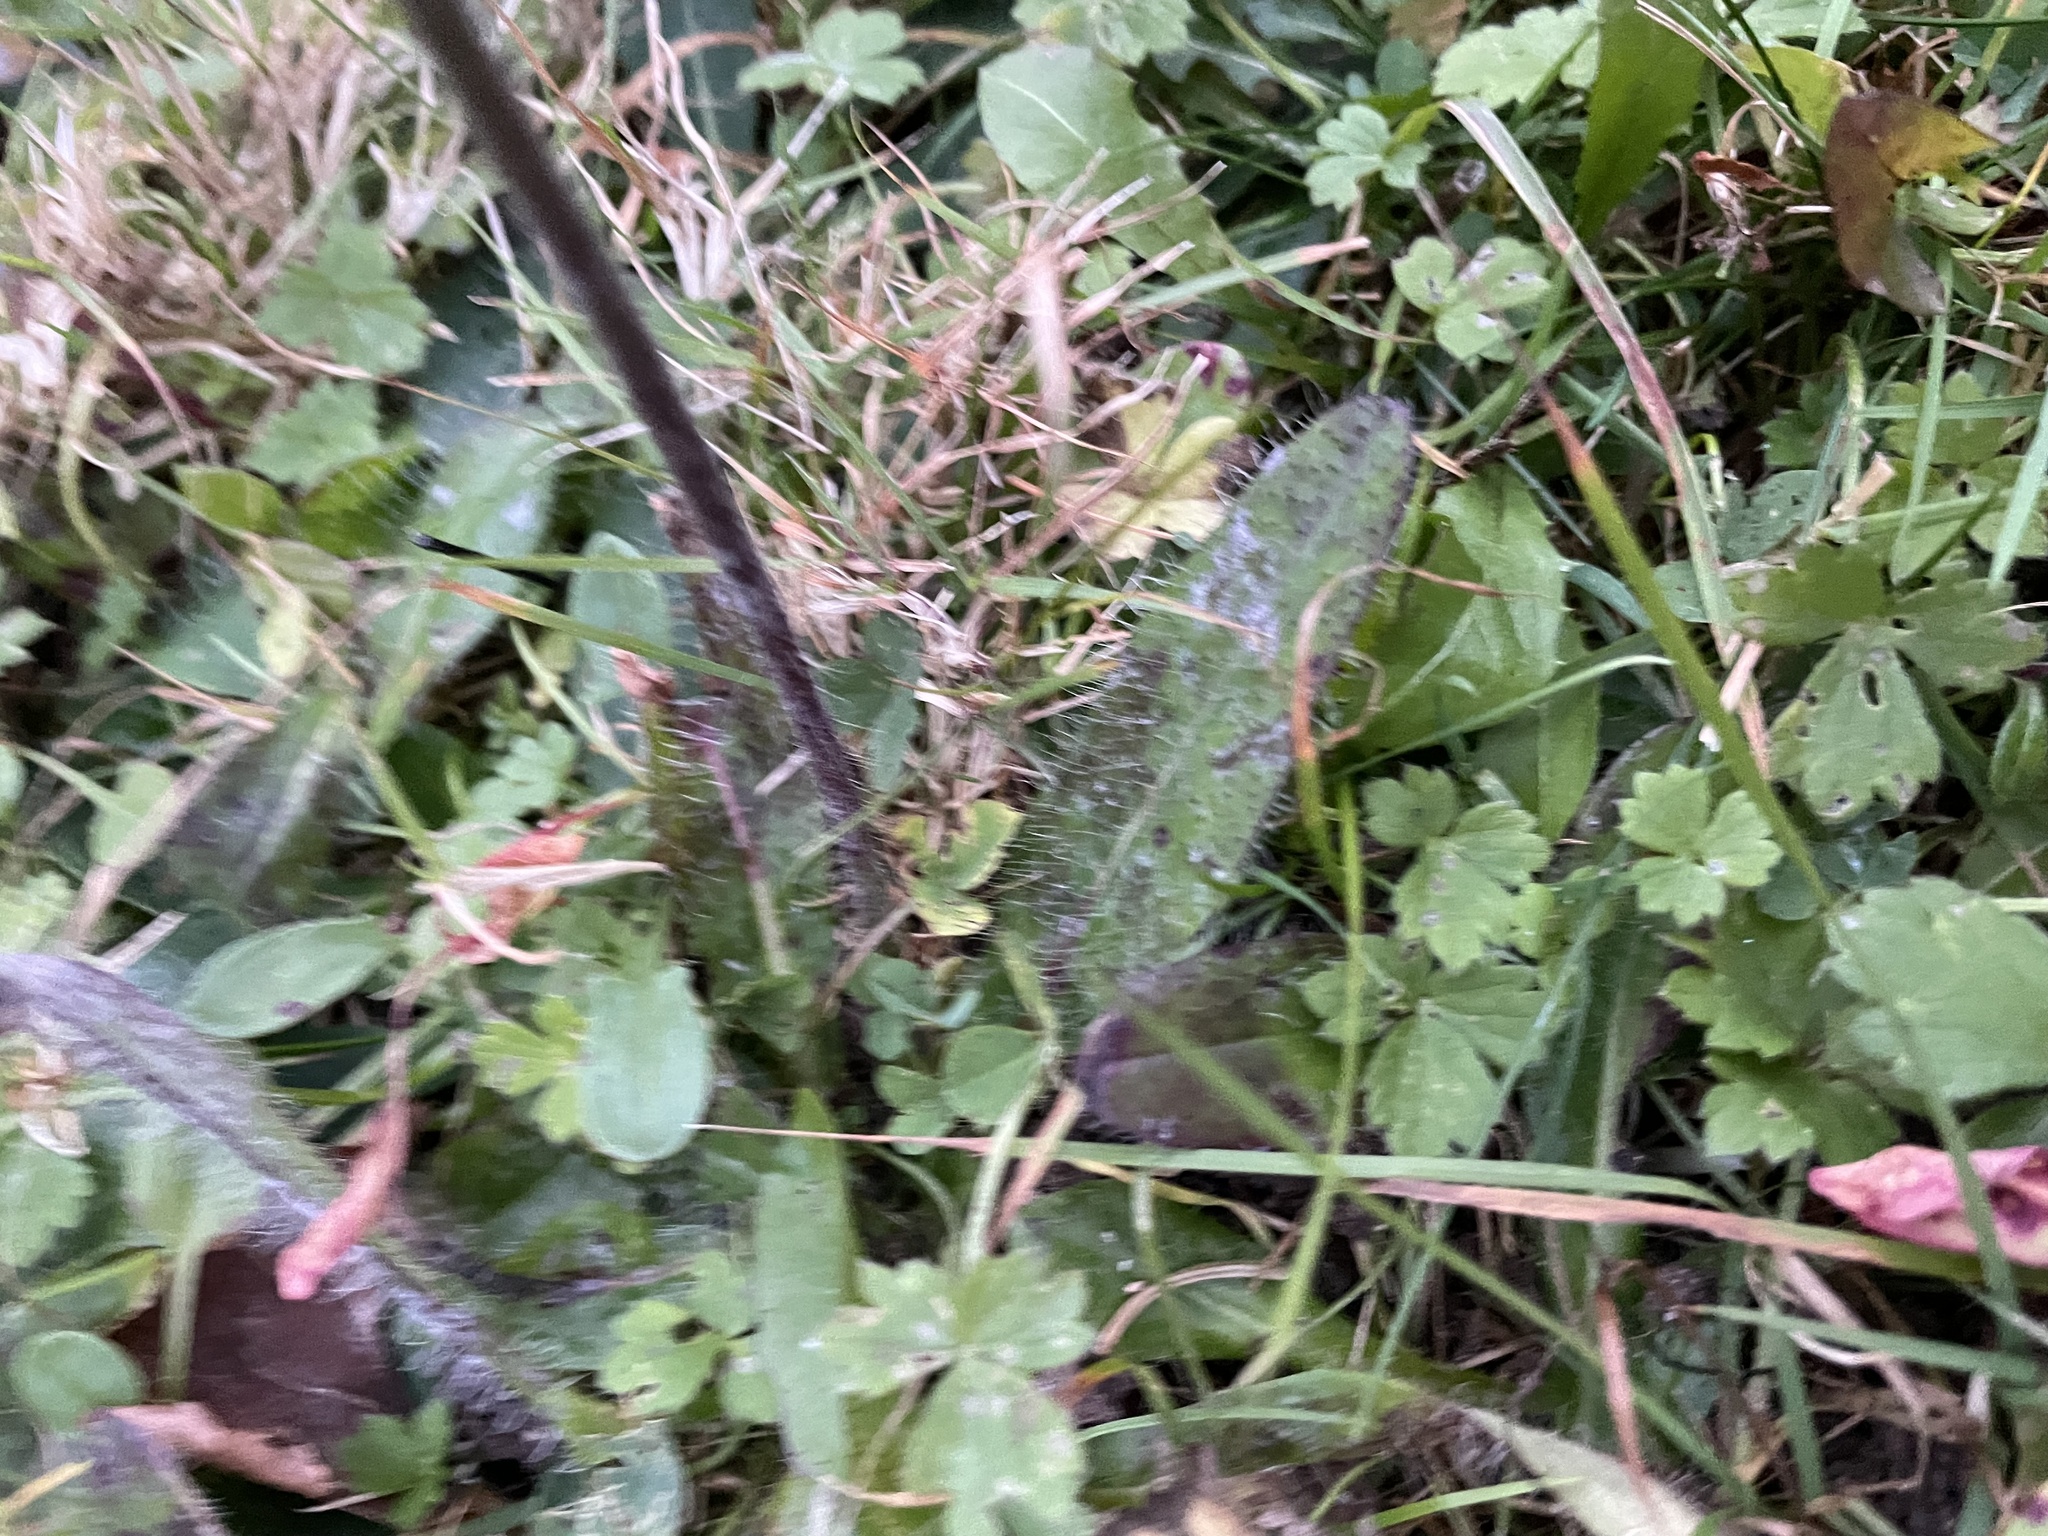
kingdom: Plantae
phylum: Tracheophyta
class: Magnoliopsida
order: Asterales
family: Asteraceae
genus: Pilosella
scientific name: Pilosella aurantiaca
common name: Fox-and-cubs
